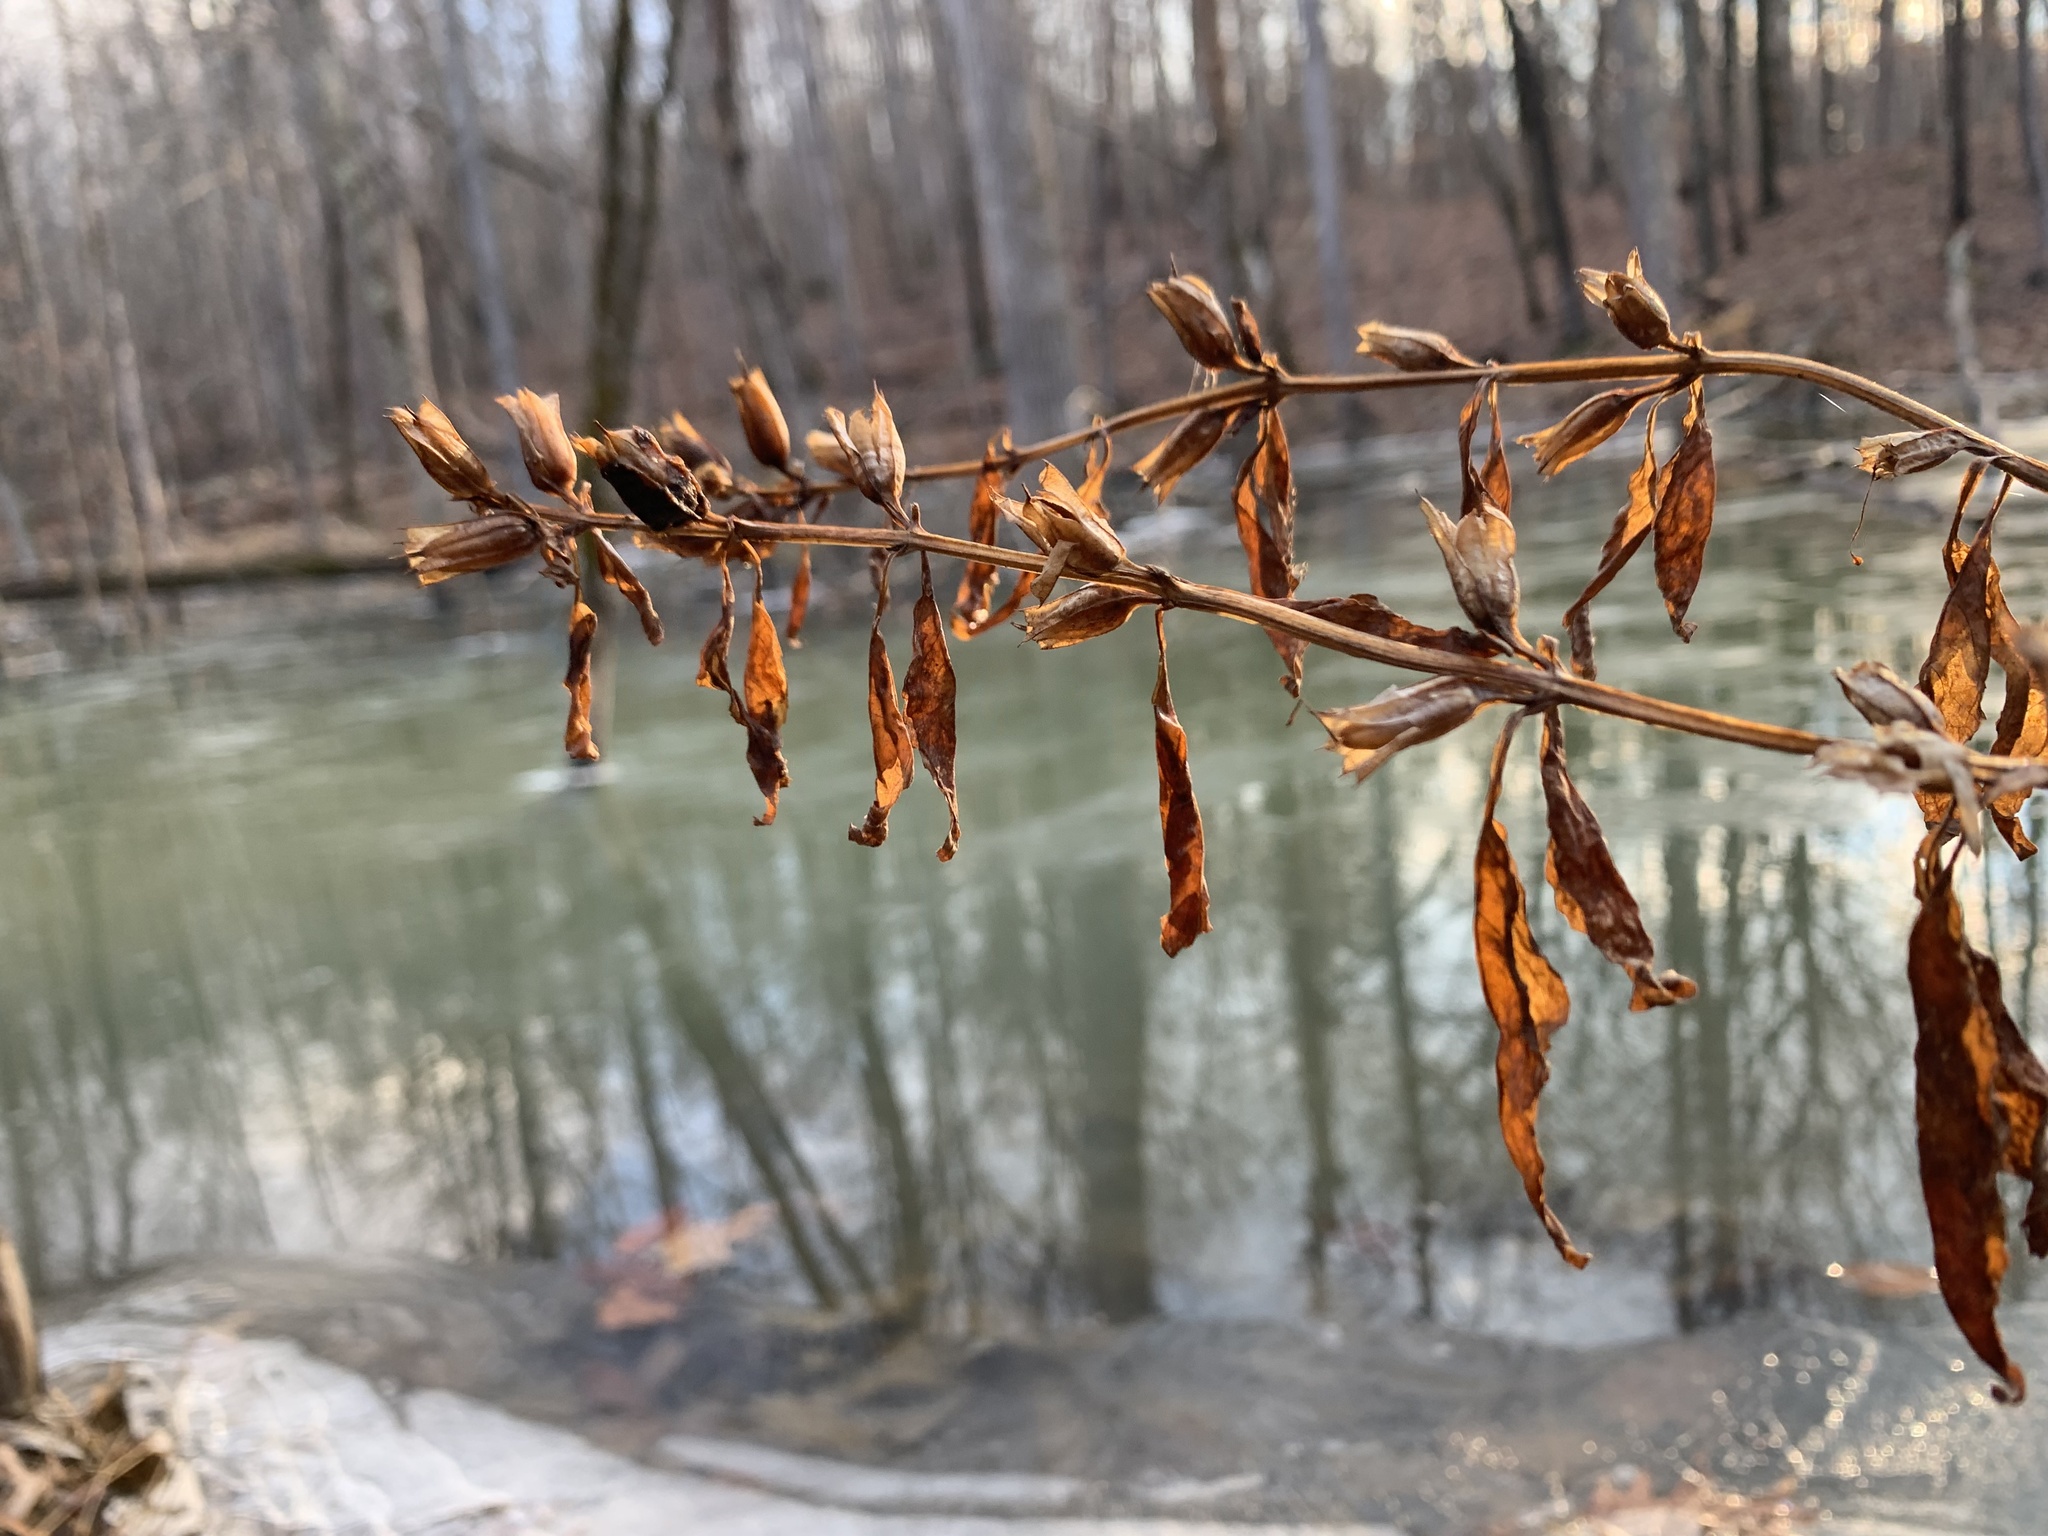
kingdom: Plantae
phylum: Tracheophyta
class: Magnoliopsida
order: Lamiales
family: Phrymaceae
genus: Mimulus
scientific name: Mimulus alatus
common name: Sharp-wing monkey-flower
